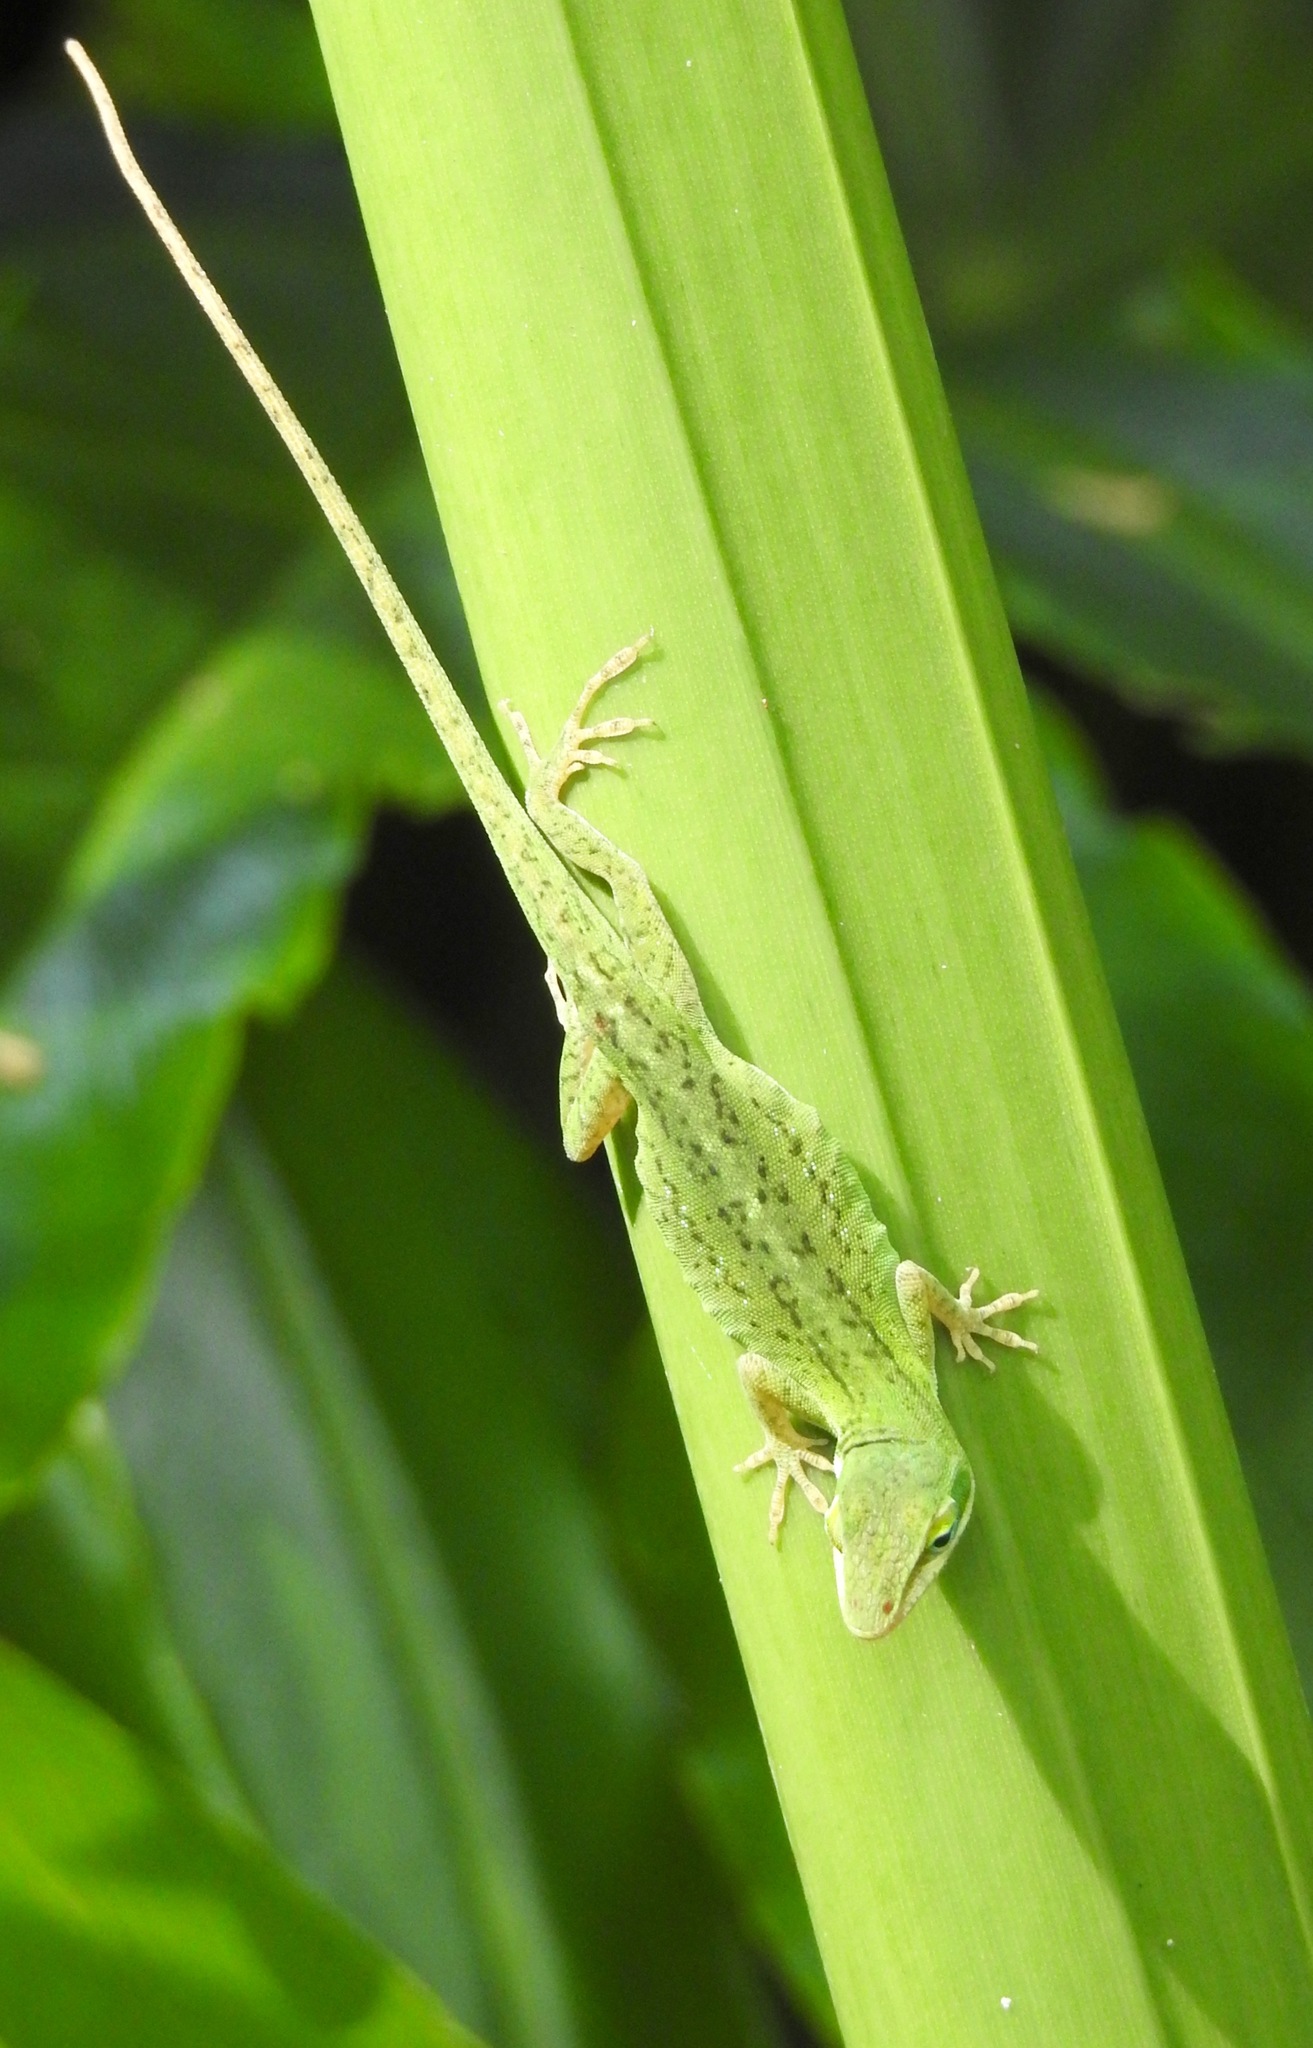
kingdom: Animalia
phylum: Chordata
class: Squamata
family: Dactyloidae
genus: Anolis
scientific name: Anolis carolinensis
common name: Green anole
